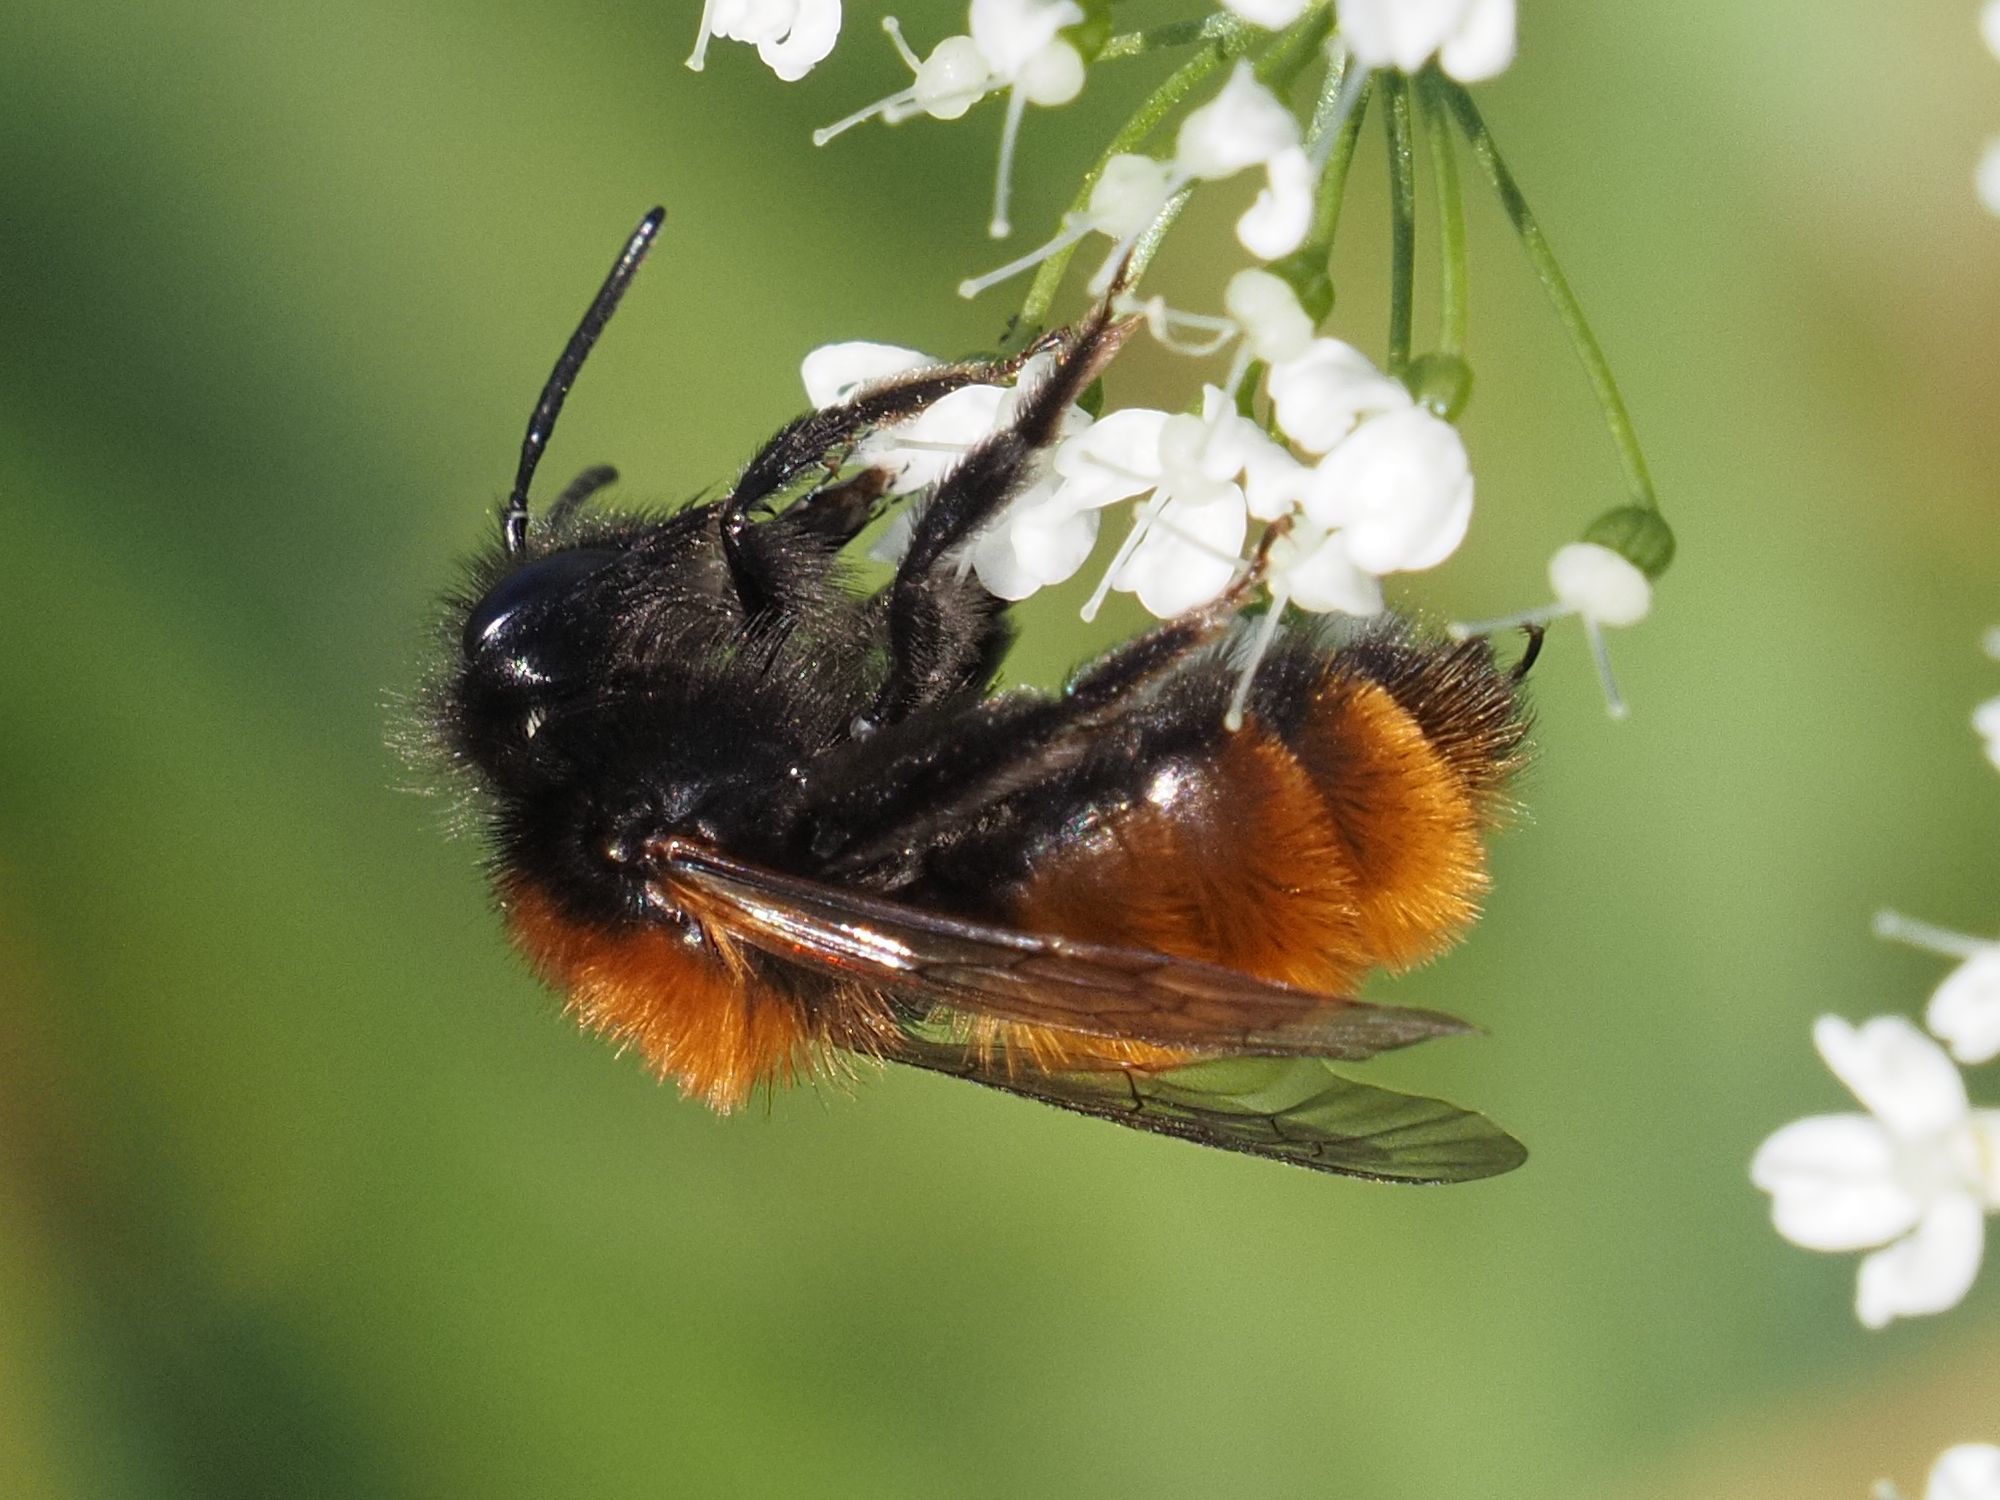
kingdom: Animalia
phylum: Arthropoda
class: Insecta
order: Hymenoptera
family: Andrenidae
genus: Andrena
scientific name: Andrena fulva
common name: Tawny mining bee
